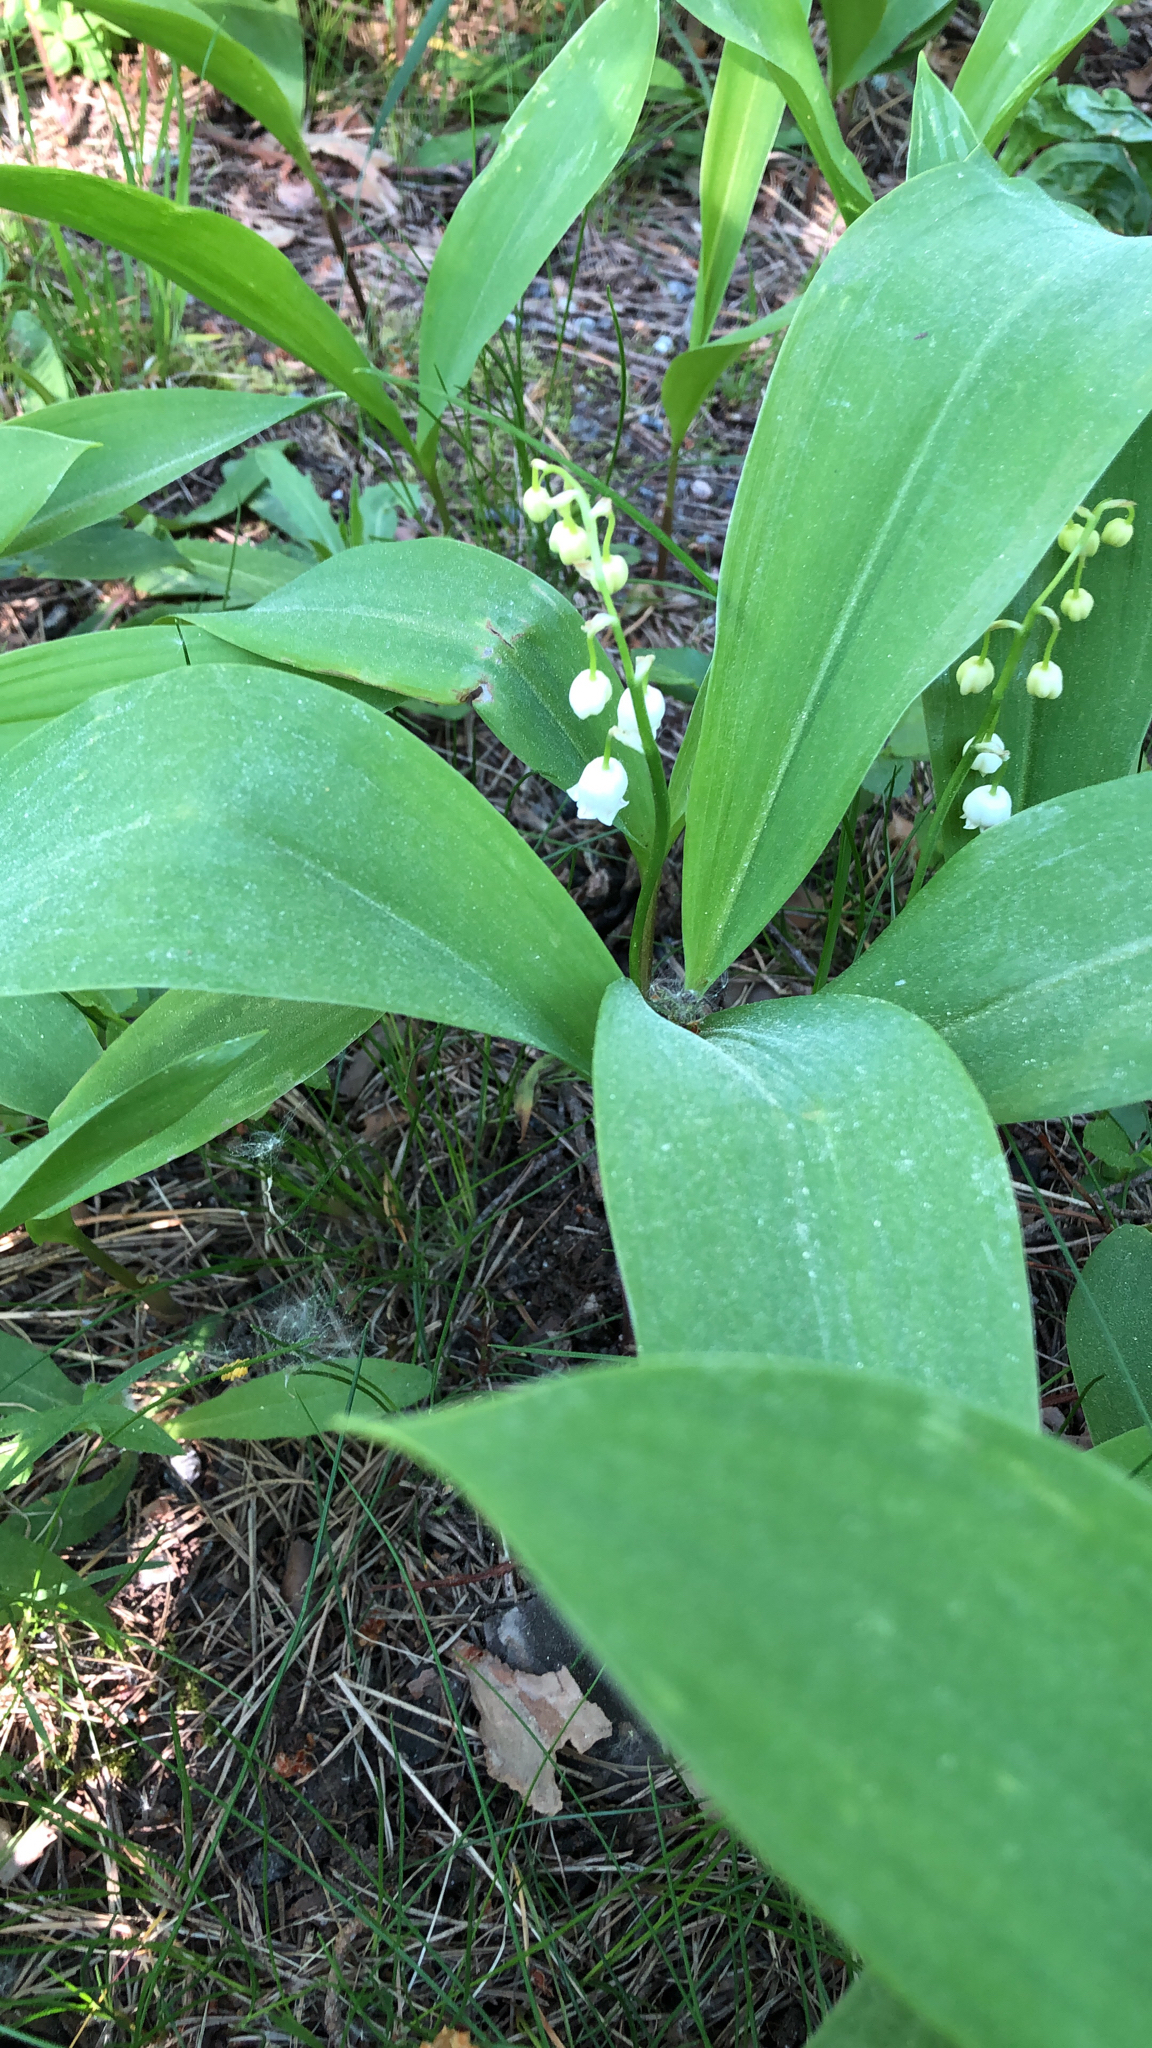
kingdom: Plantae
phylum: Tracheophyta
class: Liliopsida
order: Asparagales
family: Asparagaceae
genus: Convallaria
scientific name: Convallaria majalis
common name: Lily-of-the-valley
